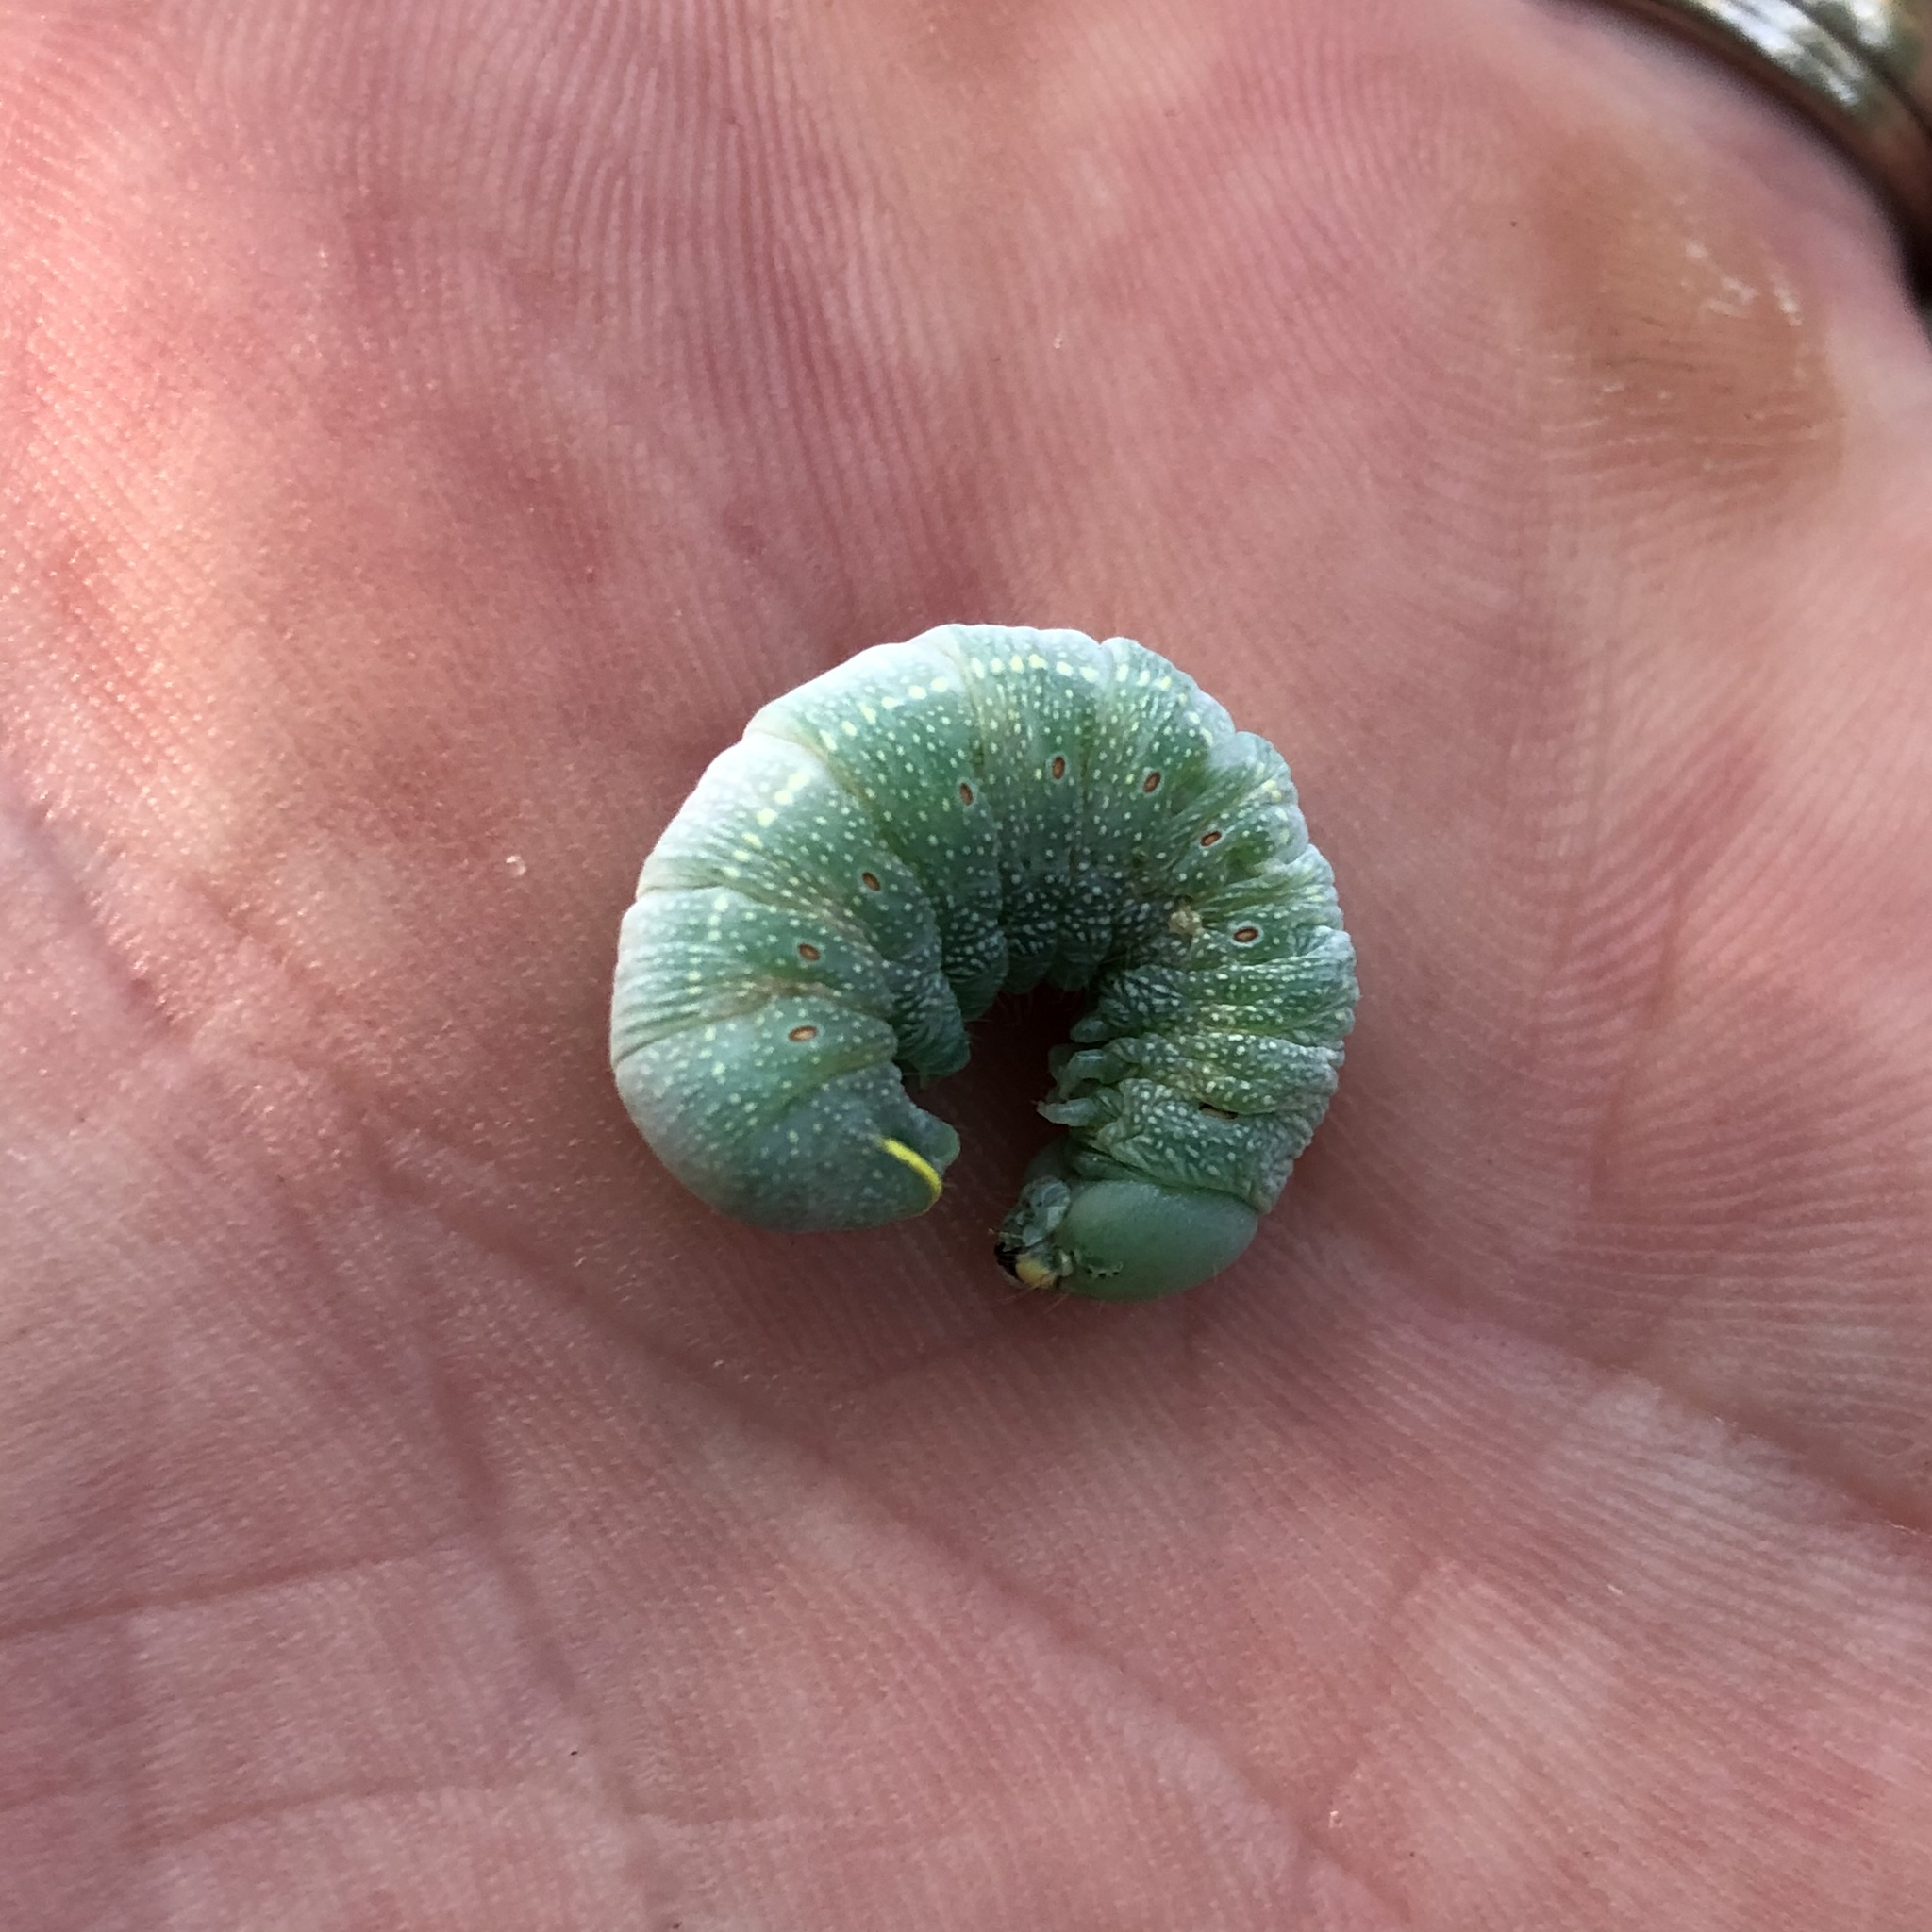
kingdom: Animalia
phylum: Arthropoda
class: Insecta
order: Lepidoptera
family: Notodontidae
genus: Nadata
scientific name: Nadata gibbosa
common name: White-dotted prominent
